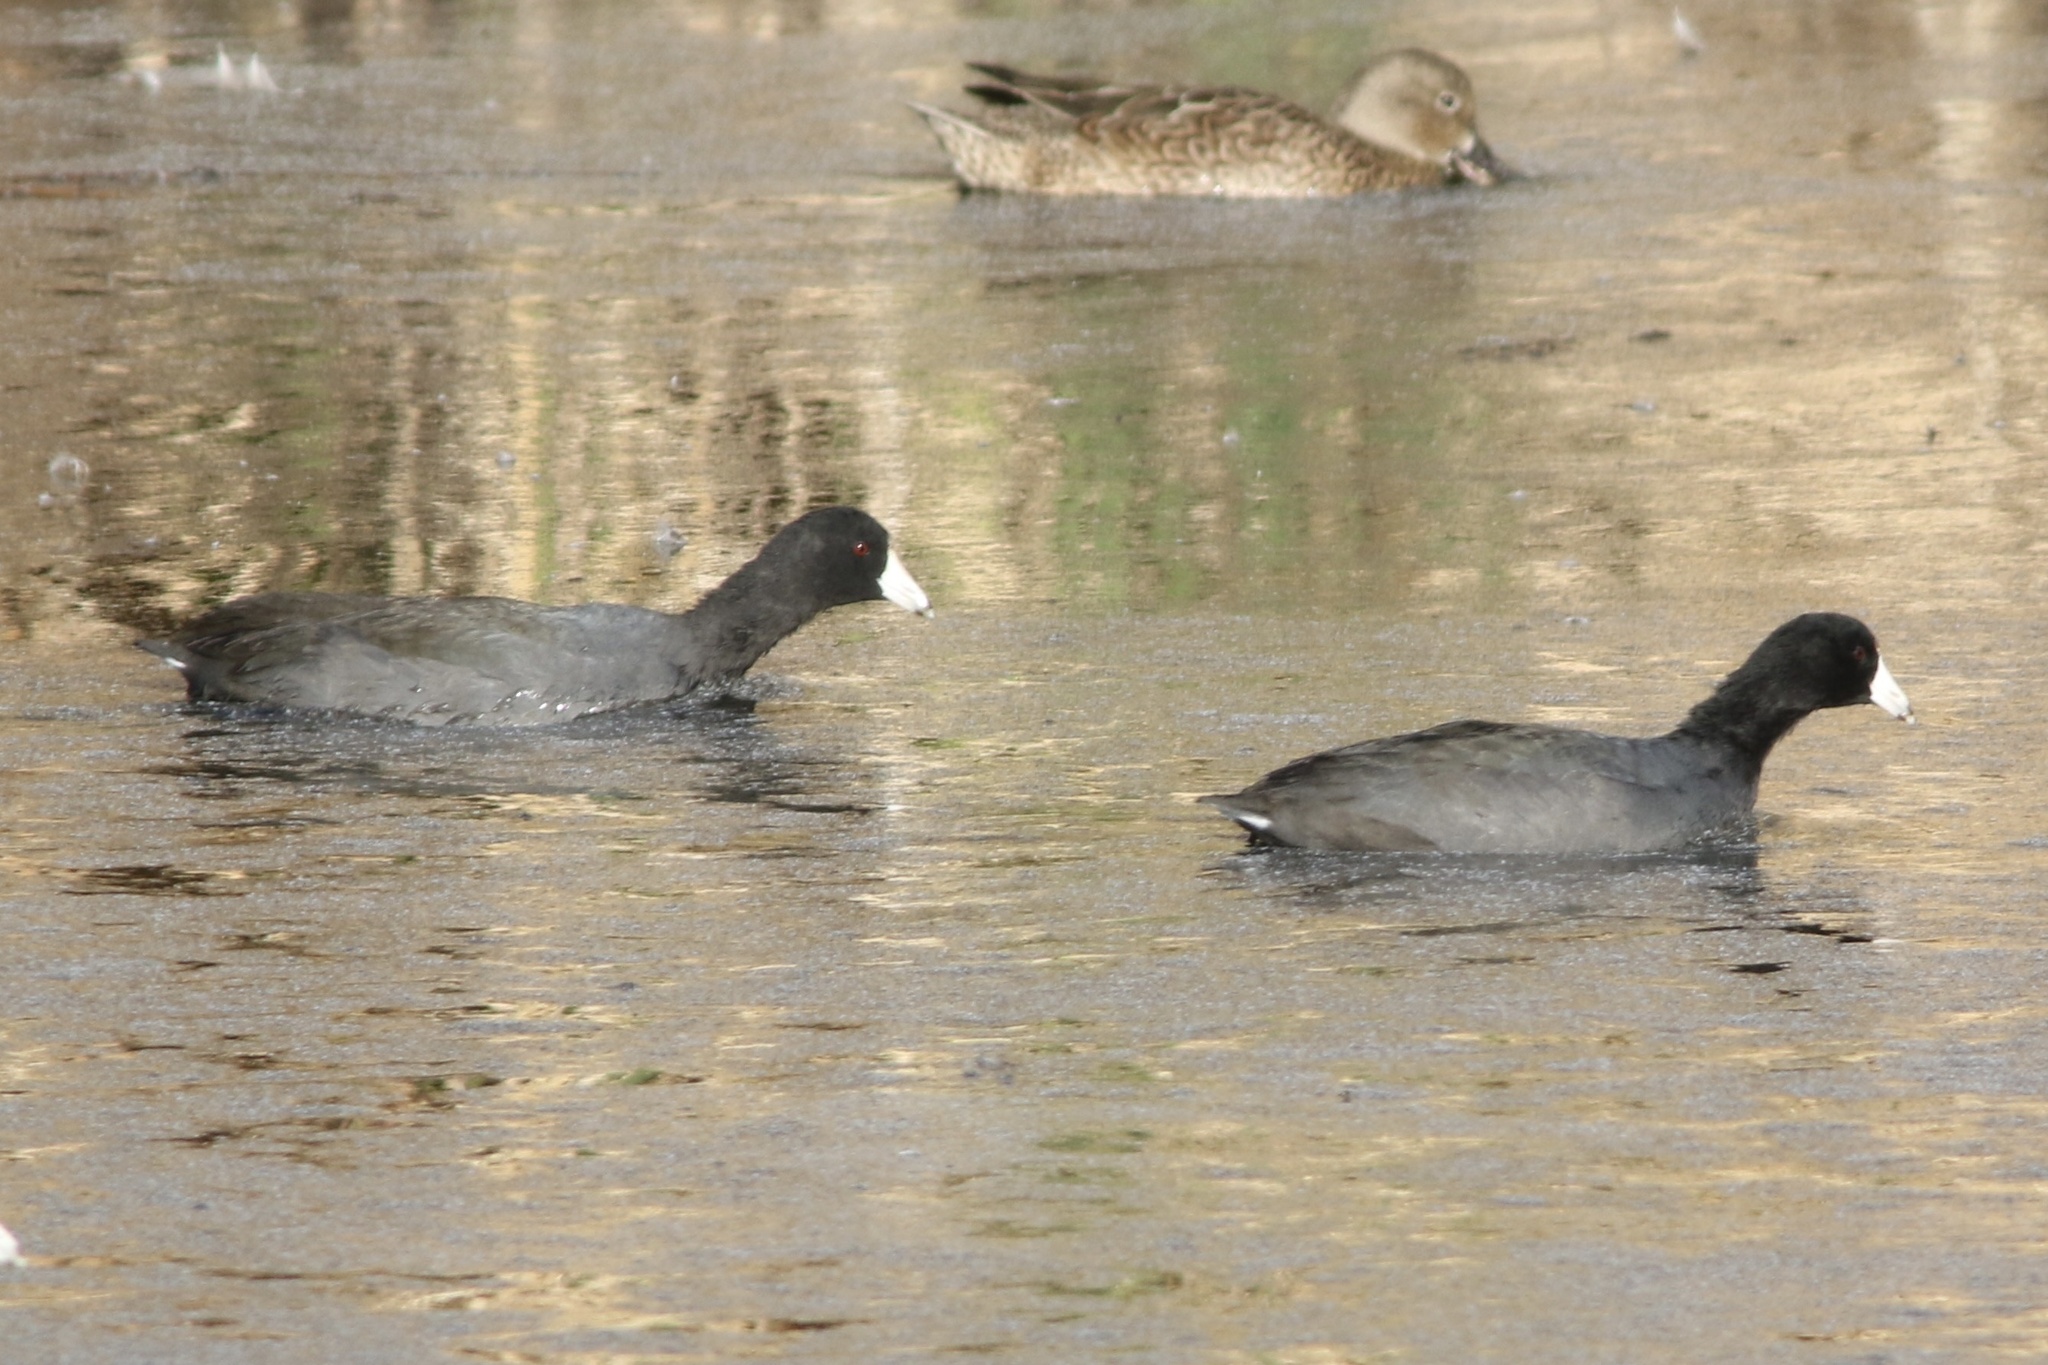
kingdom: Animalia
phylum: Chordata
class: Aves
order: Gruiformes
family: Rallidae
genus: Fulica
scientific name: Fulica americana
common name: American coot
